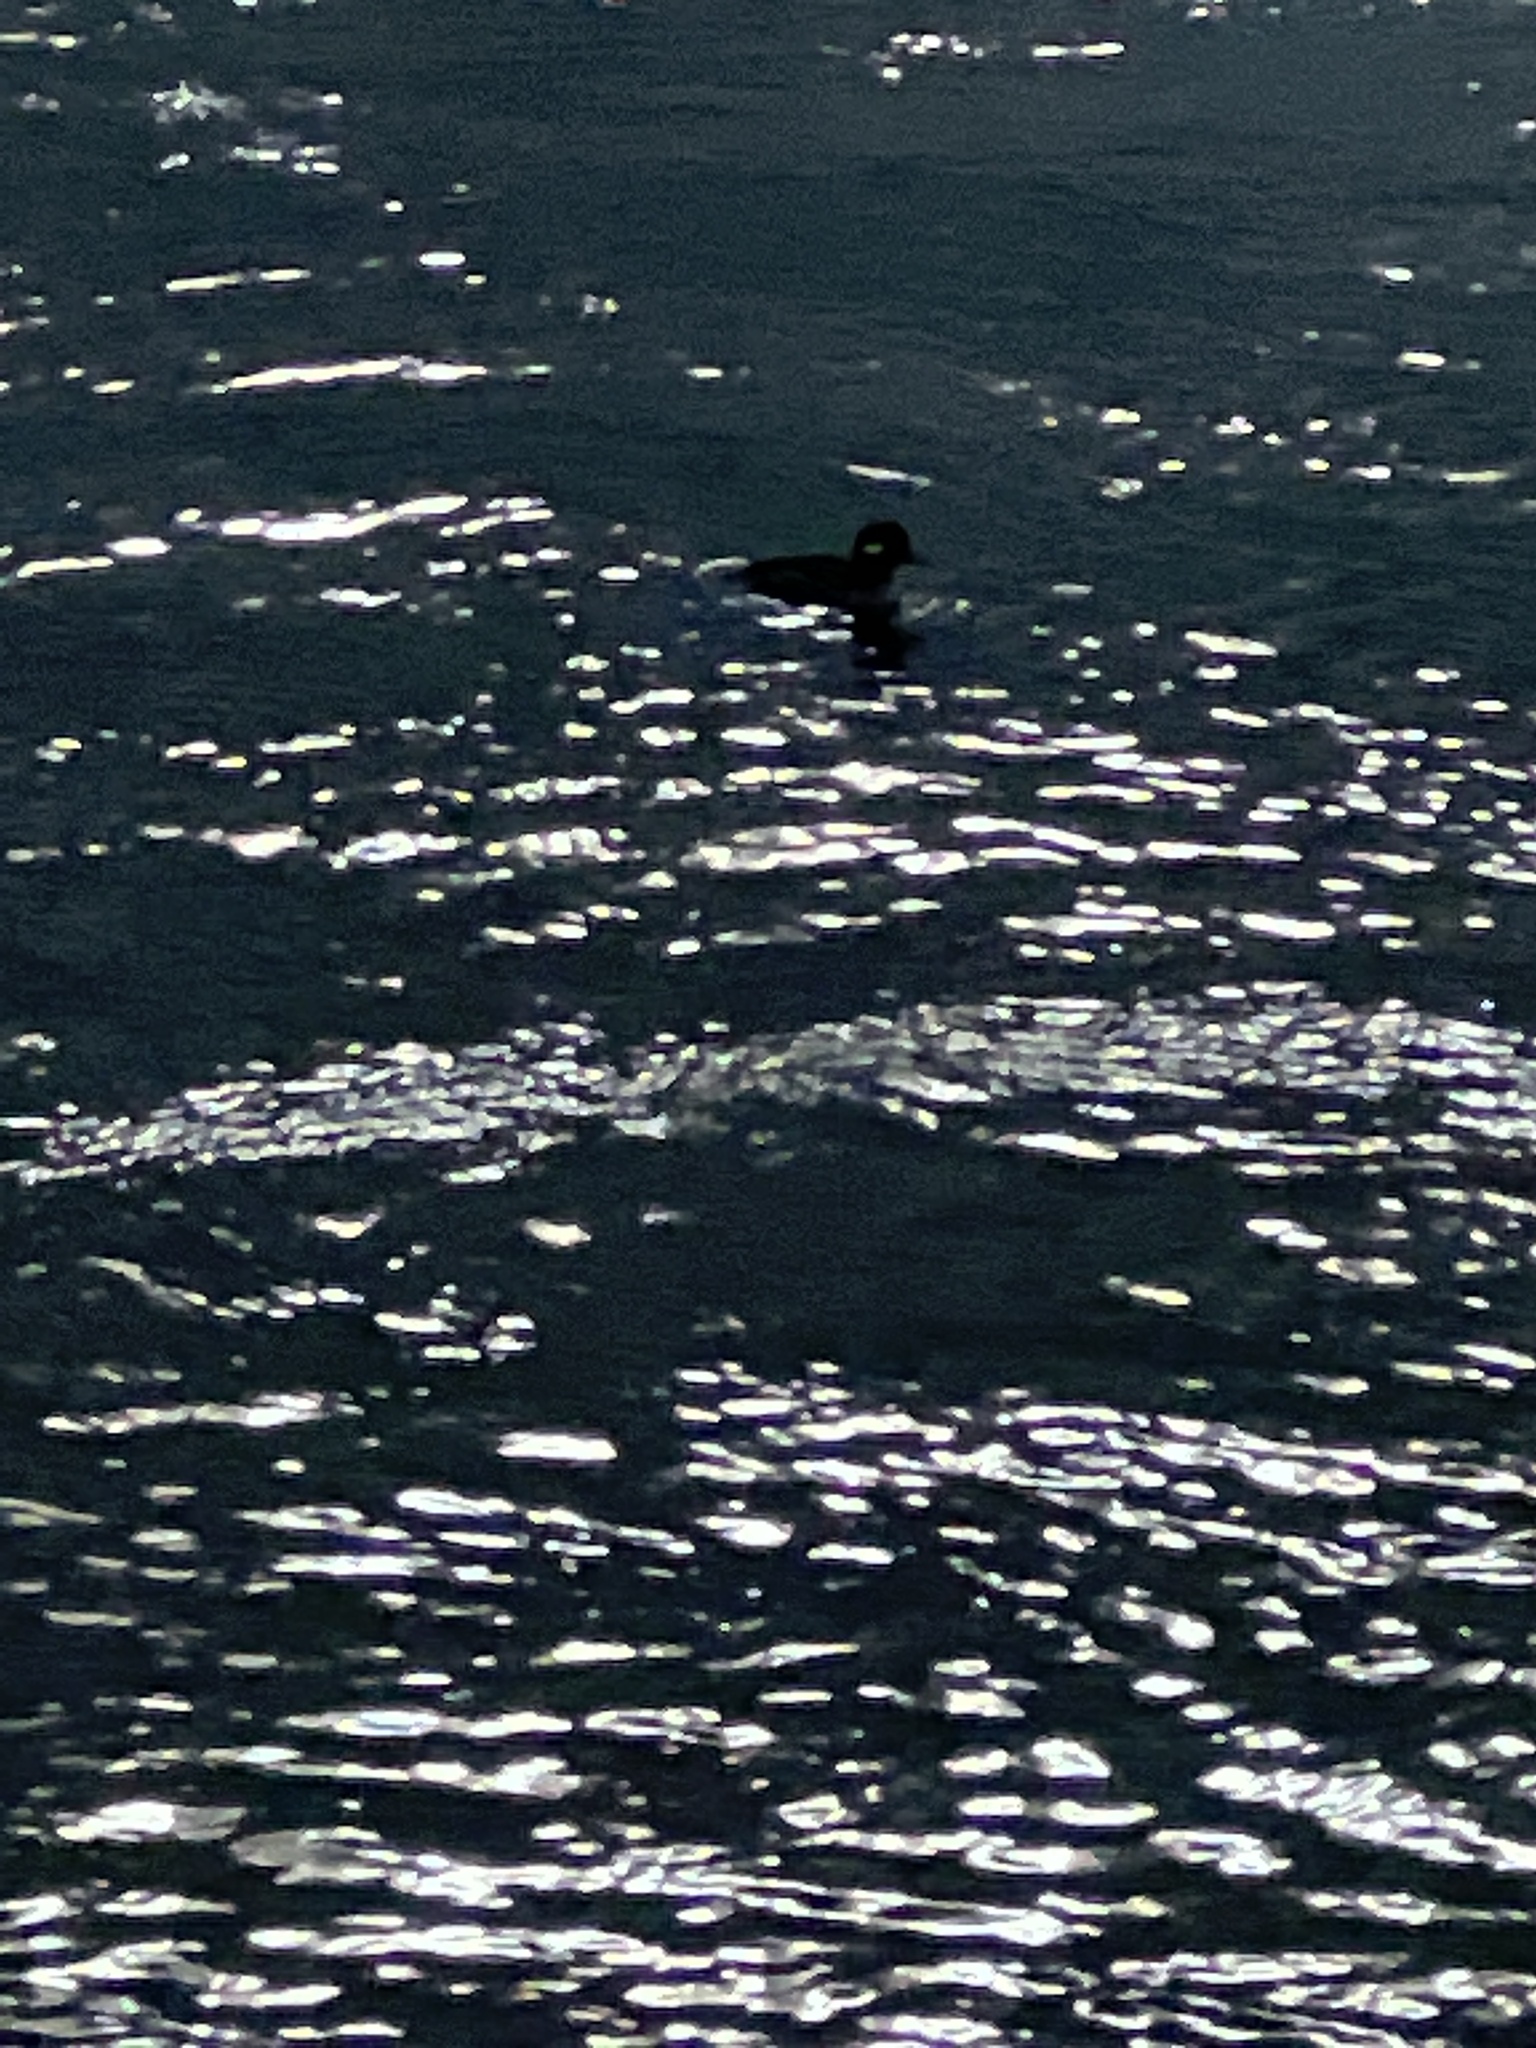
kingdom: Animalia
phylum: Chordata
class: Aves
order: Anseriformes
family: Anatidae
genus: Bucephala
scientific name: Bucephala albeola
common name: Bufflehead
